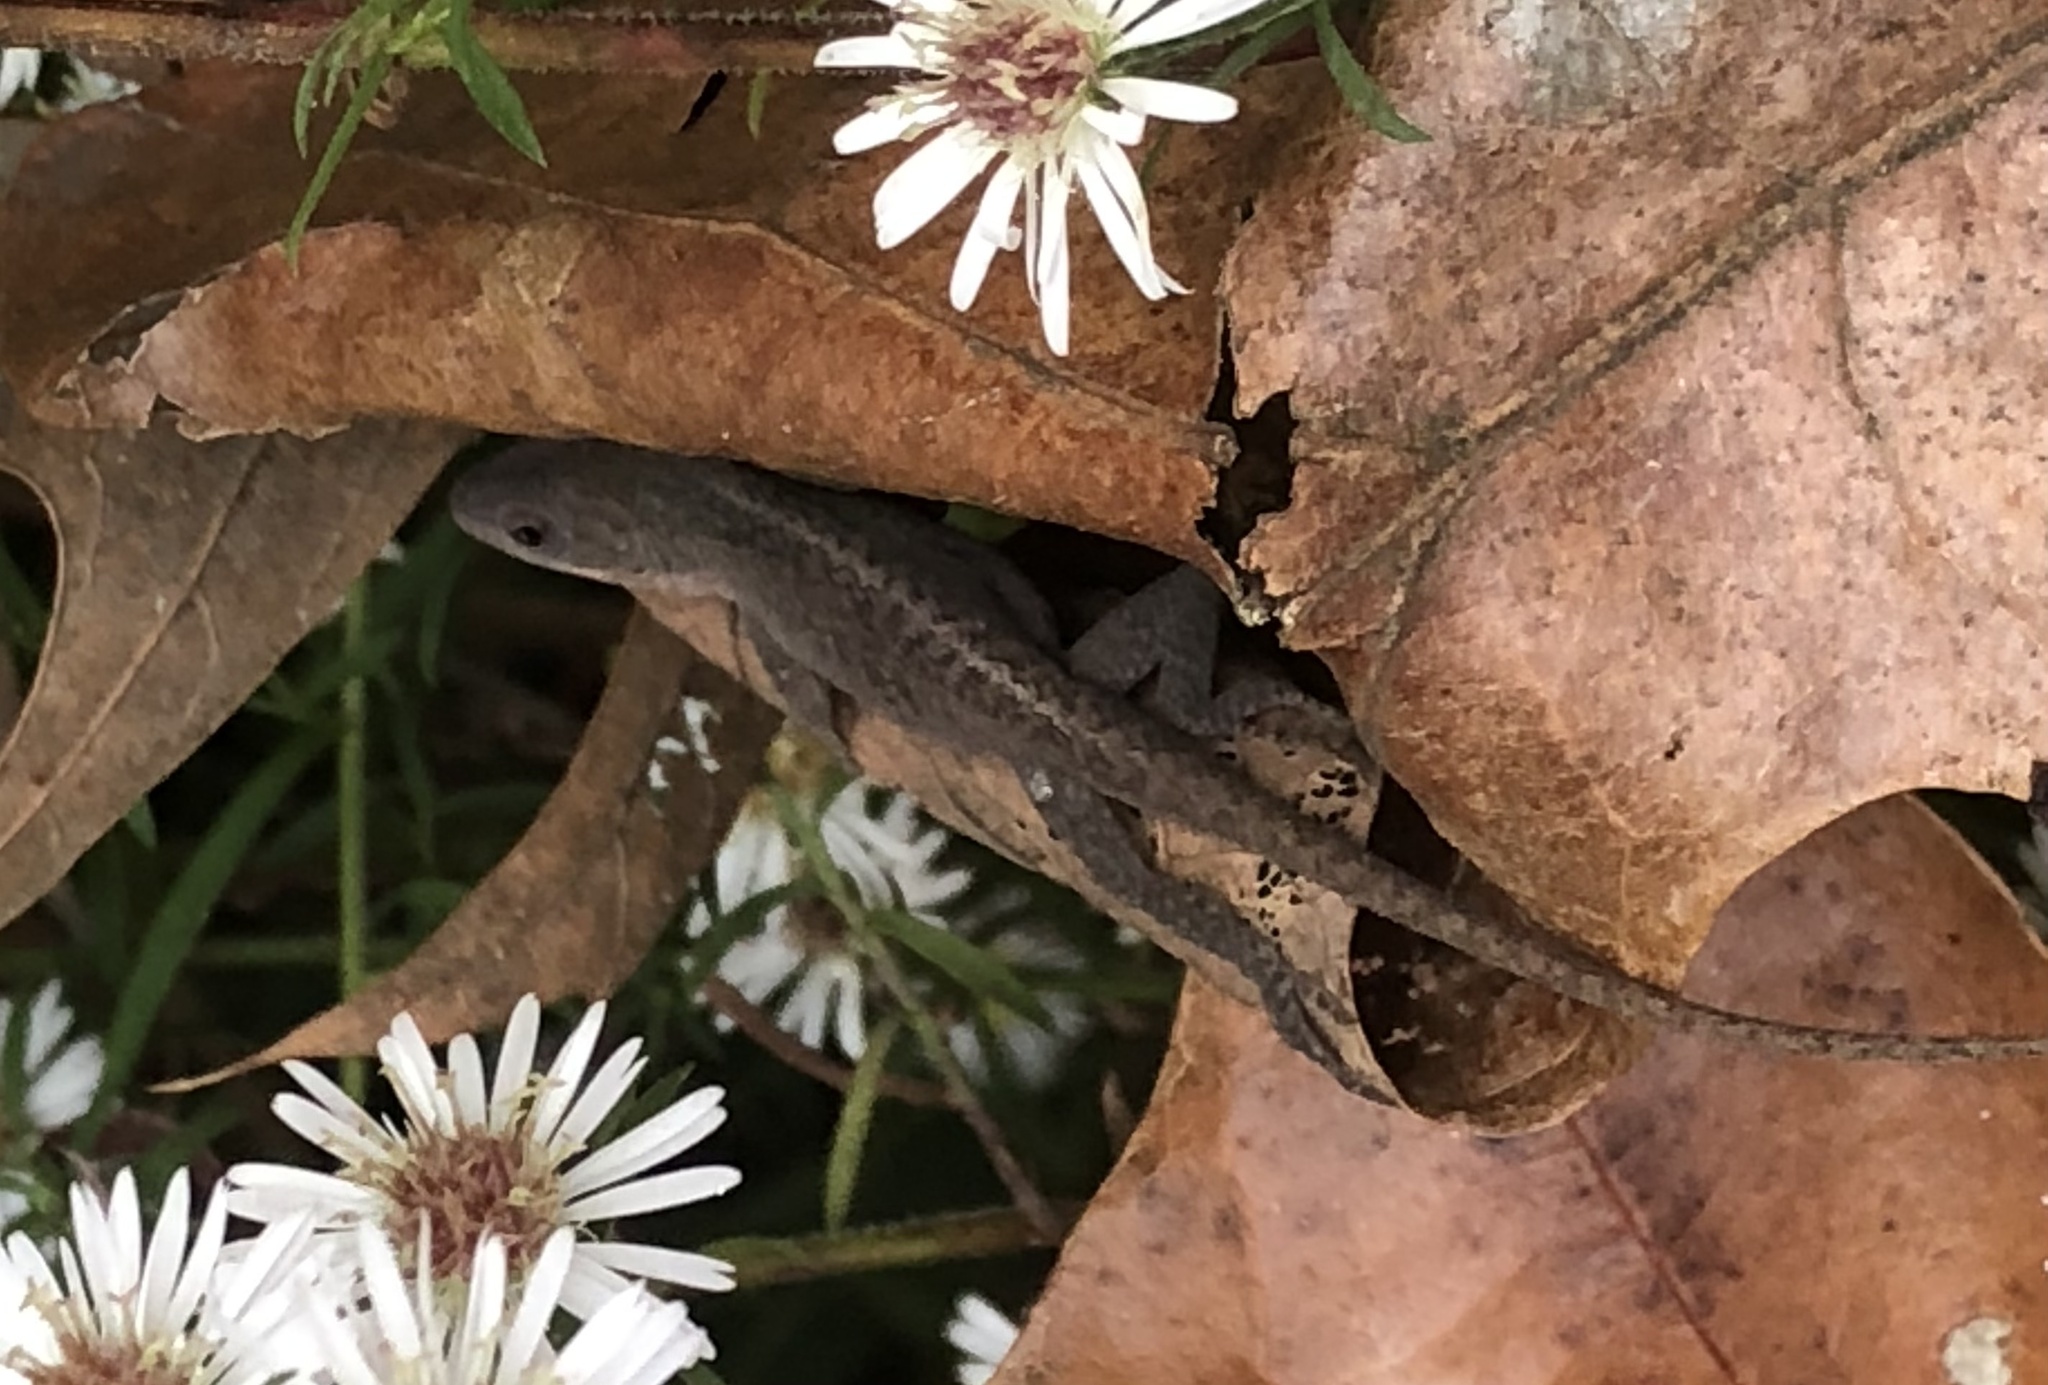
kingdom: Animalia
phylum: Chordata
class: Squamata
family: Dactyloidae
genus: Anolis
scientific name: Anolis carolinensis
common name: Green anole
